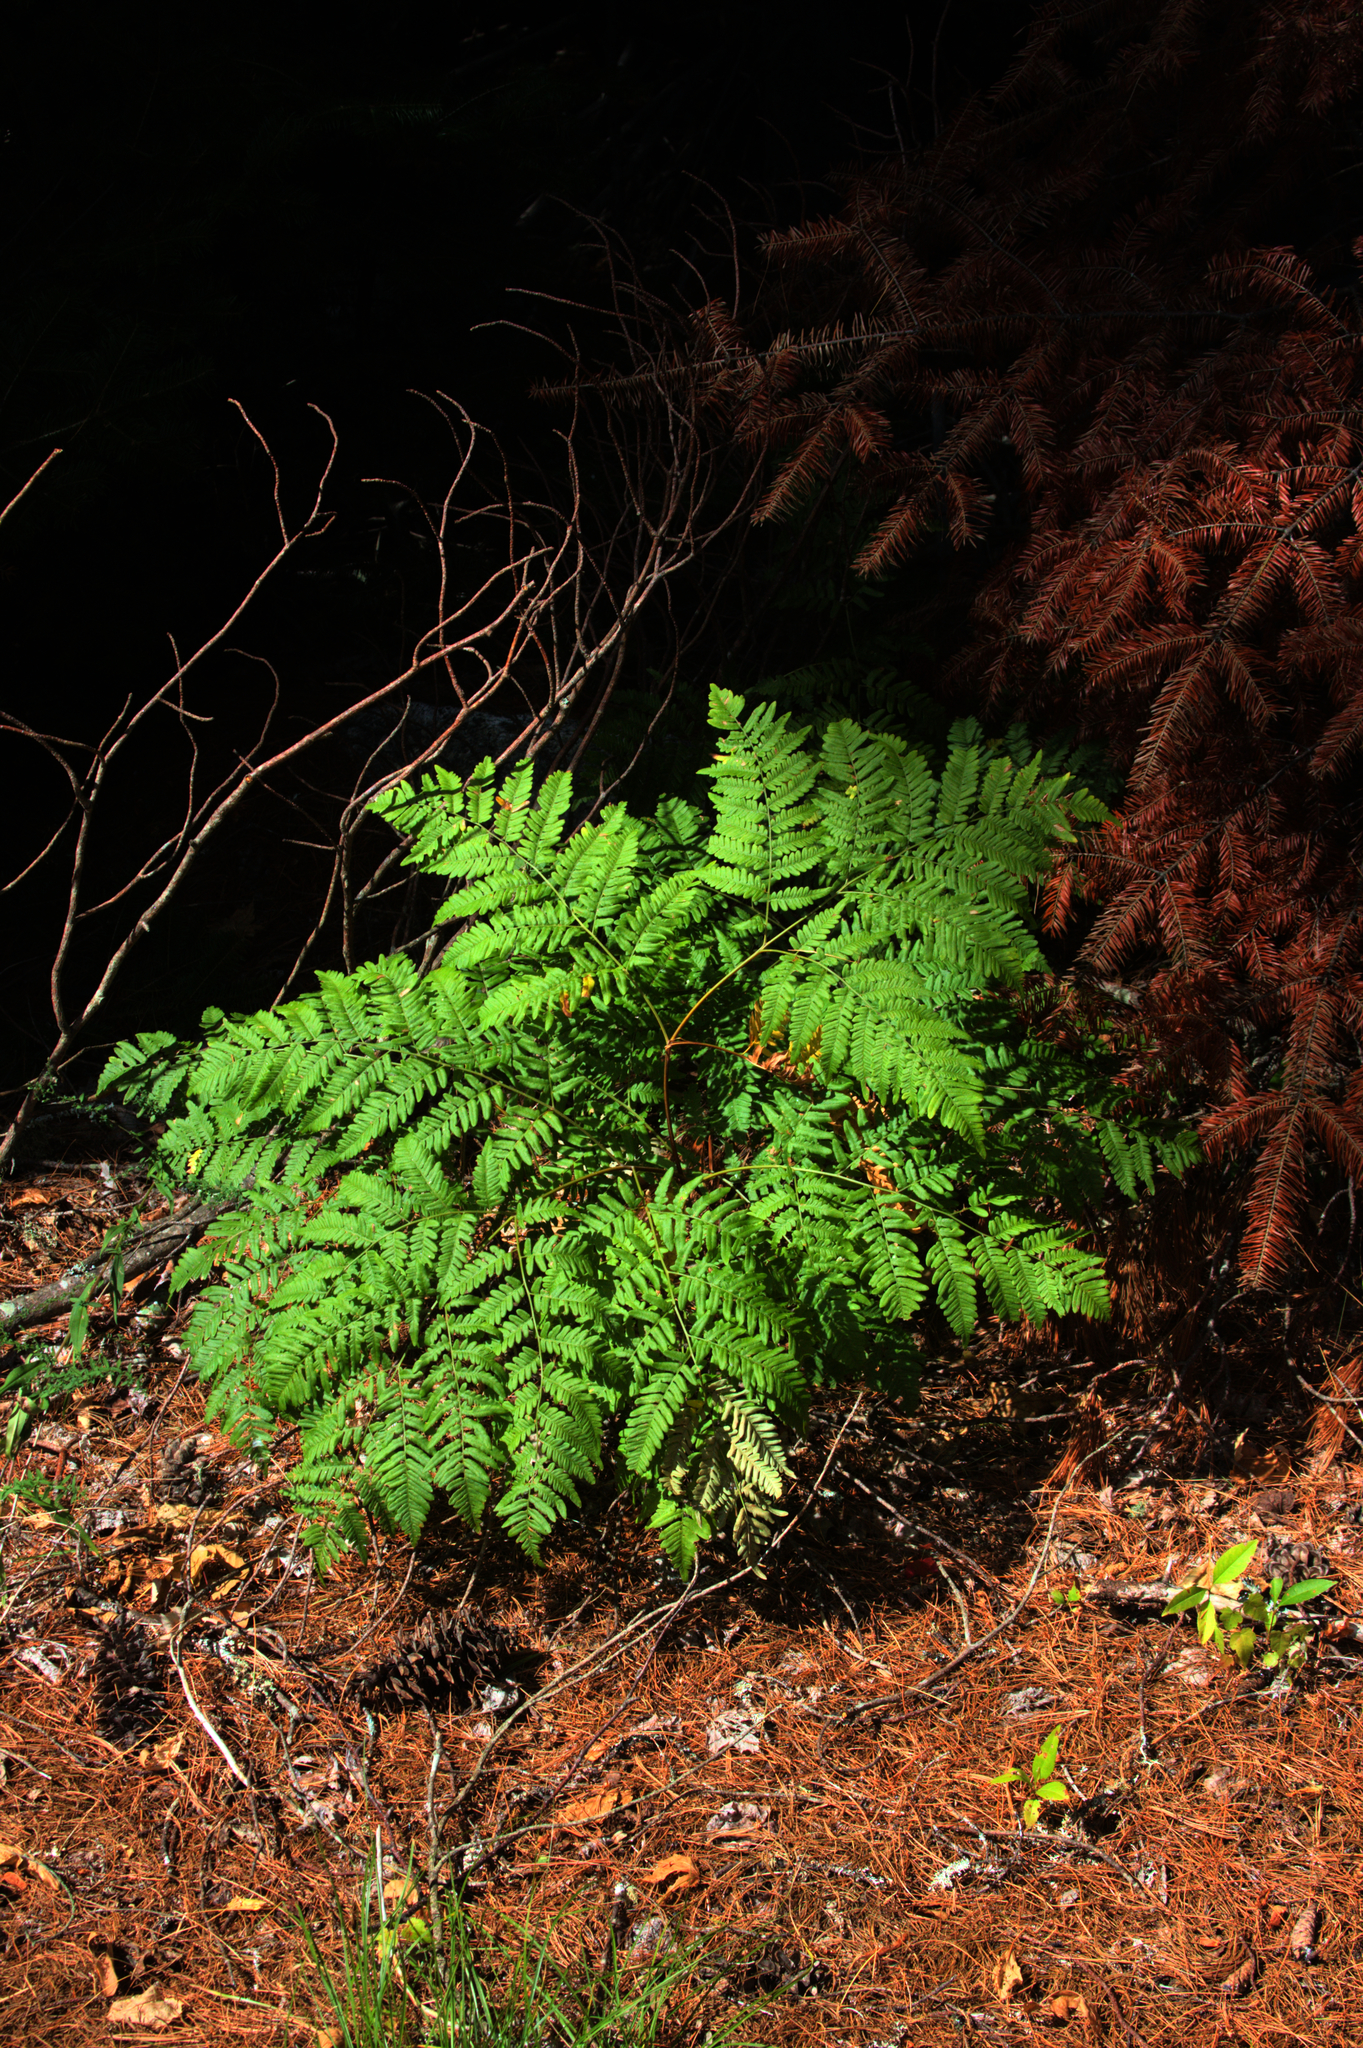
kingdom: Plantae
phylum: Tracheophyta
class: Polypodiopsida
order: Polypodiales
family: Dennstaedtiaceae
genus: Pteridium
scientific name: Pteridium aquilinum
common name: Bracken
